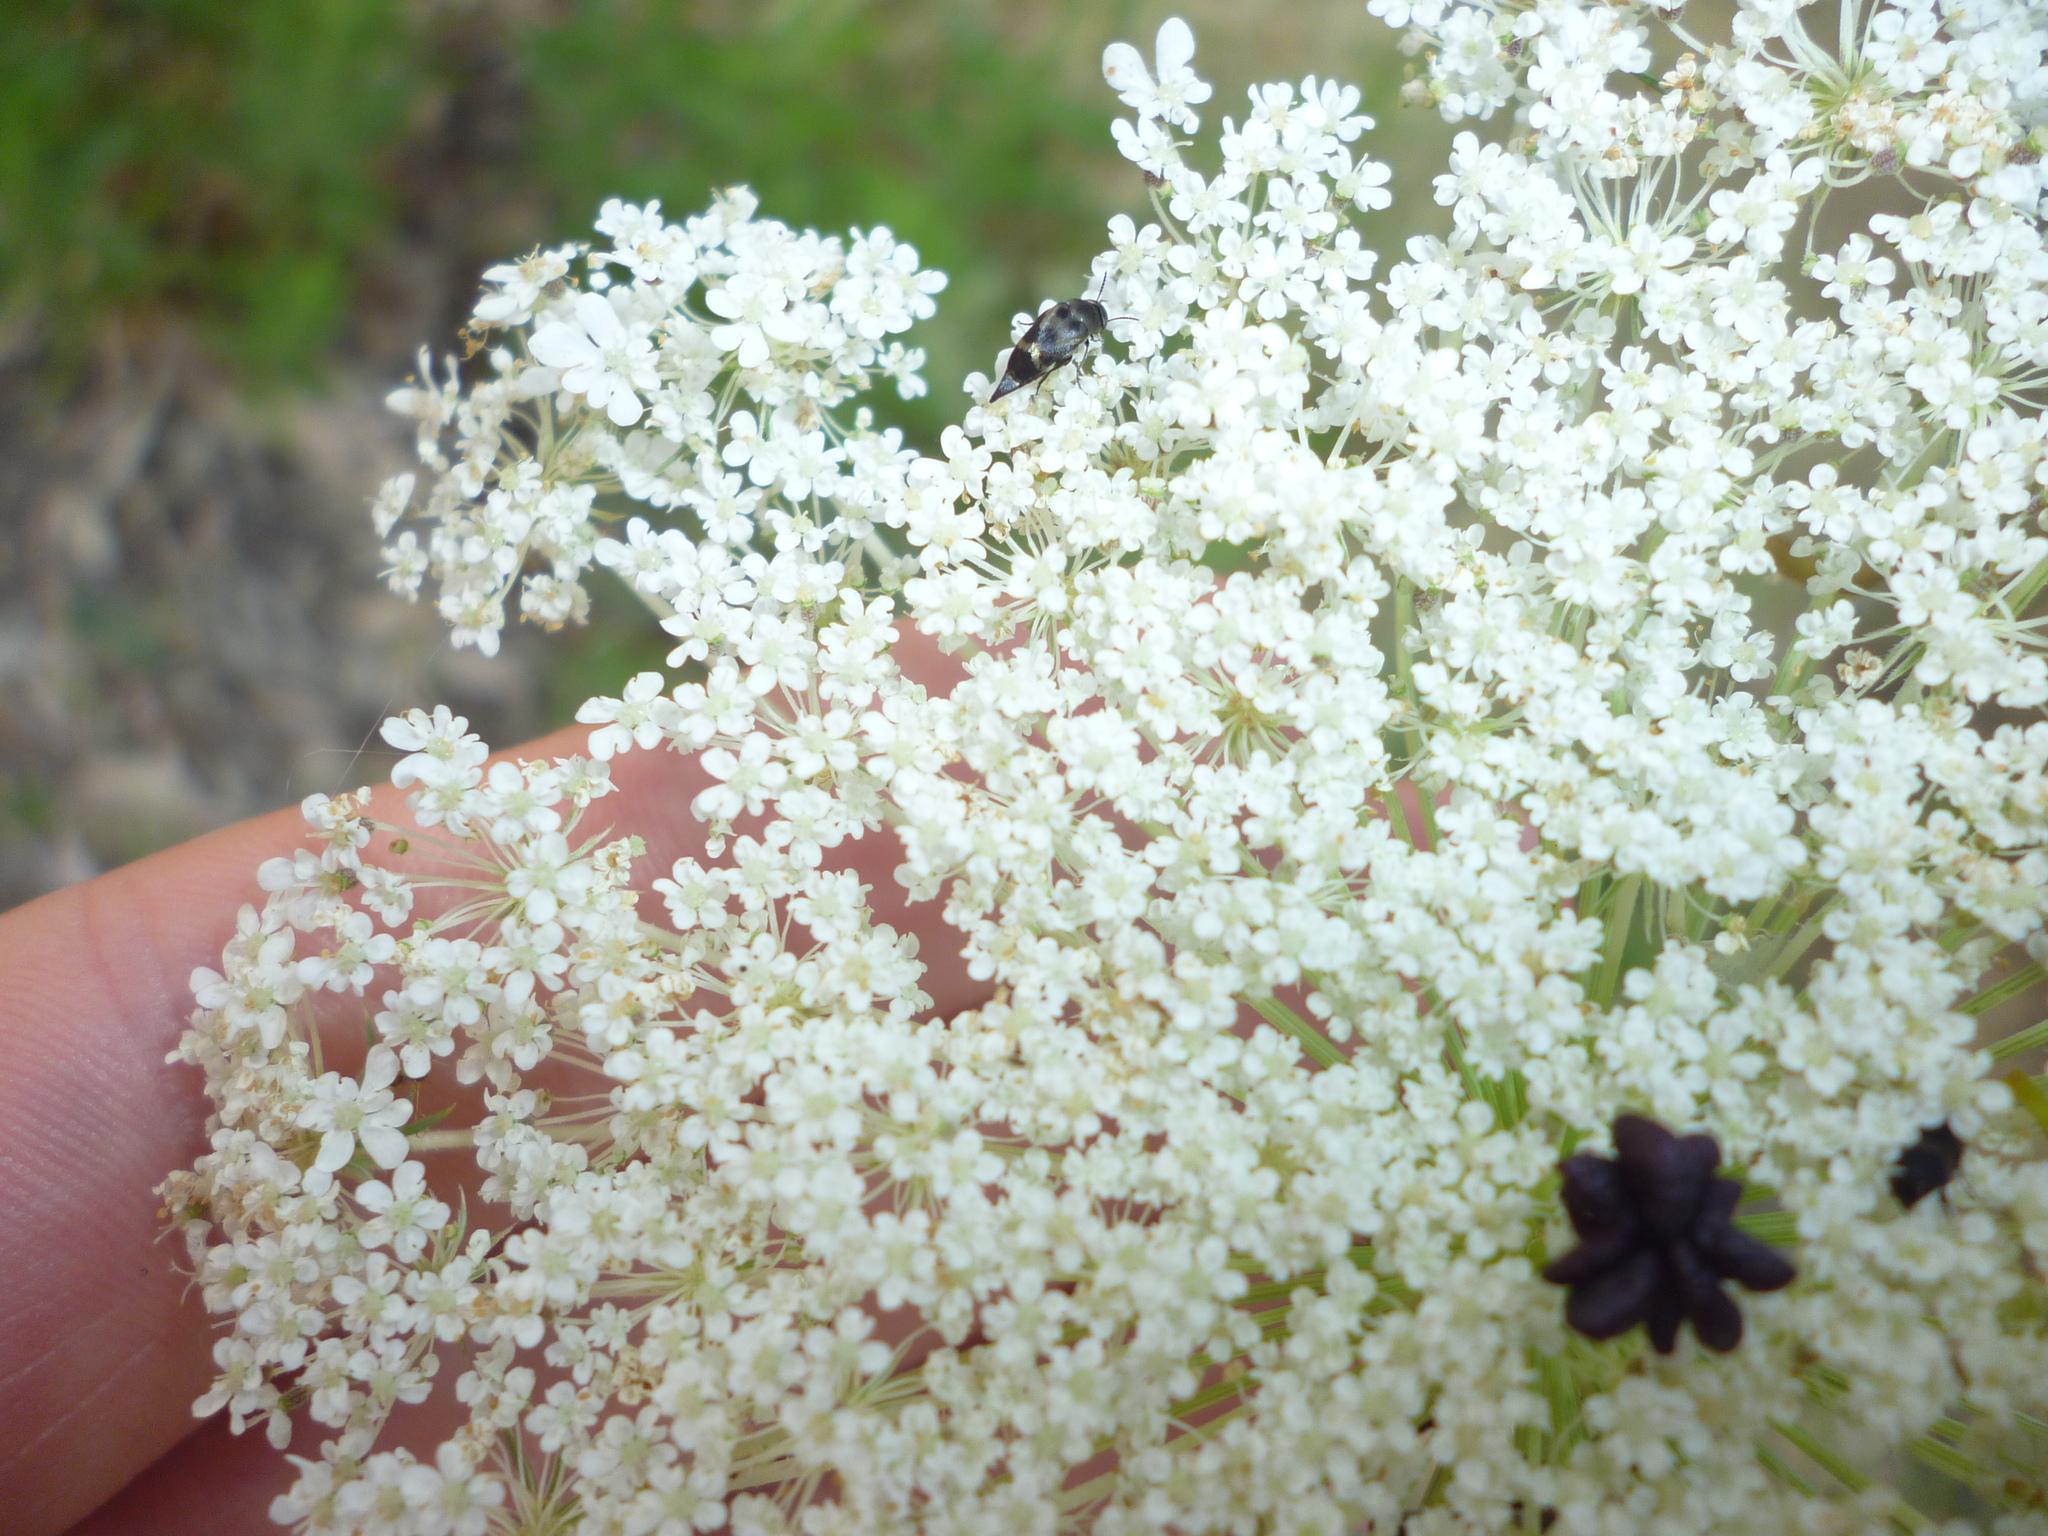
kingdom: Plantae
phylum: Tracheophyta
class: Magnoliopsida
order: Apiales
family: Apiaceae
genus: Daucus
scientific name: Daucus carota
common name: Wild carrot
